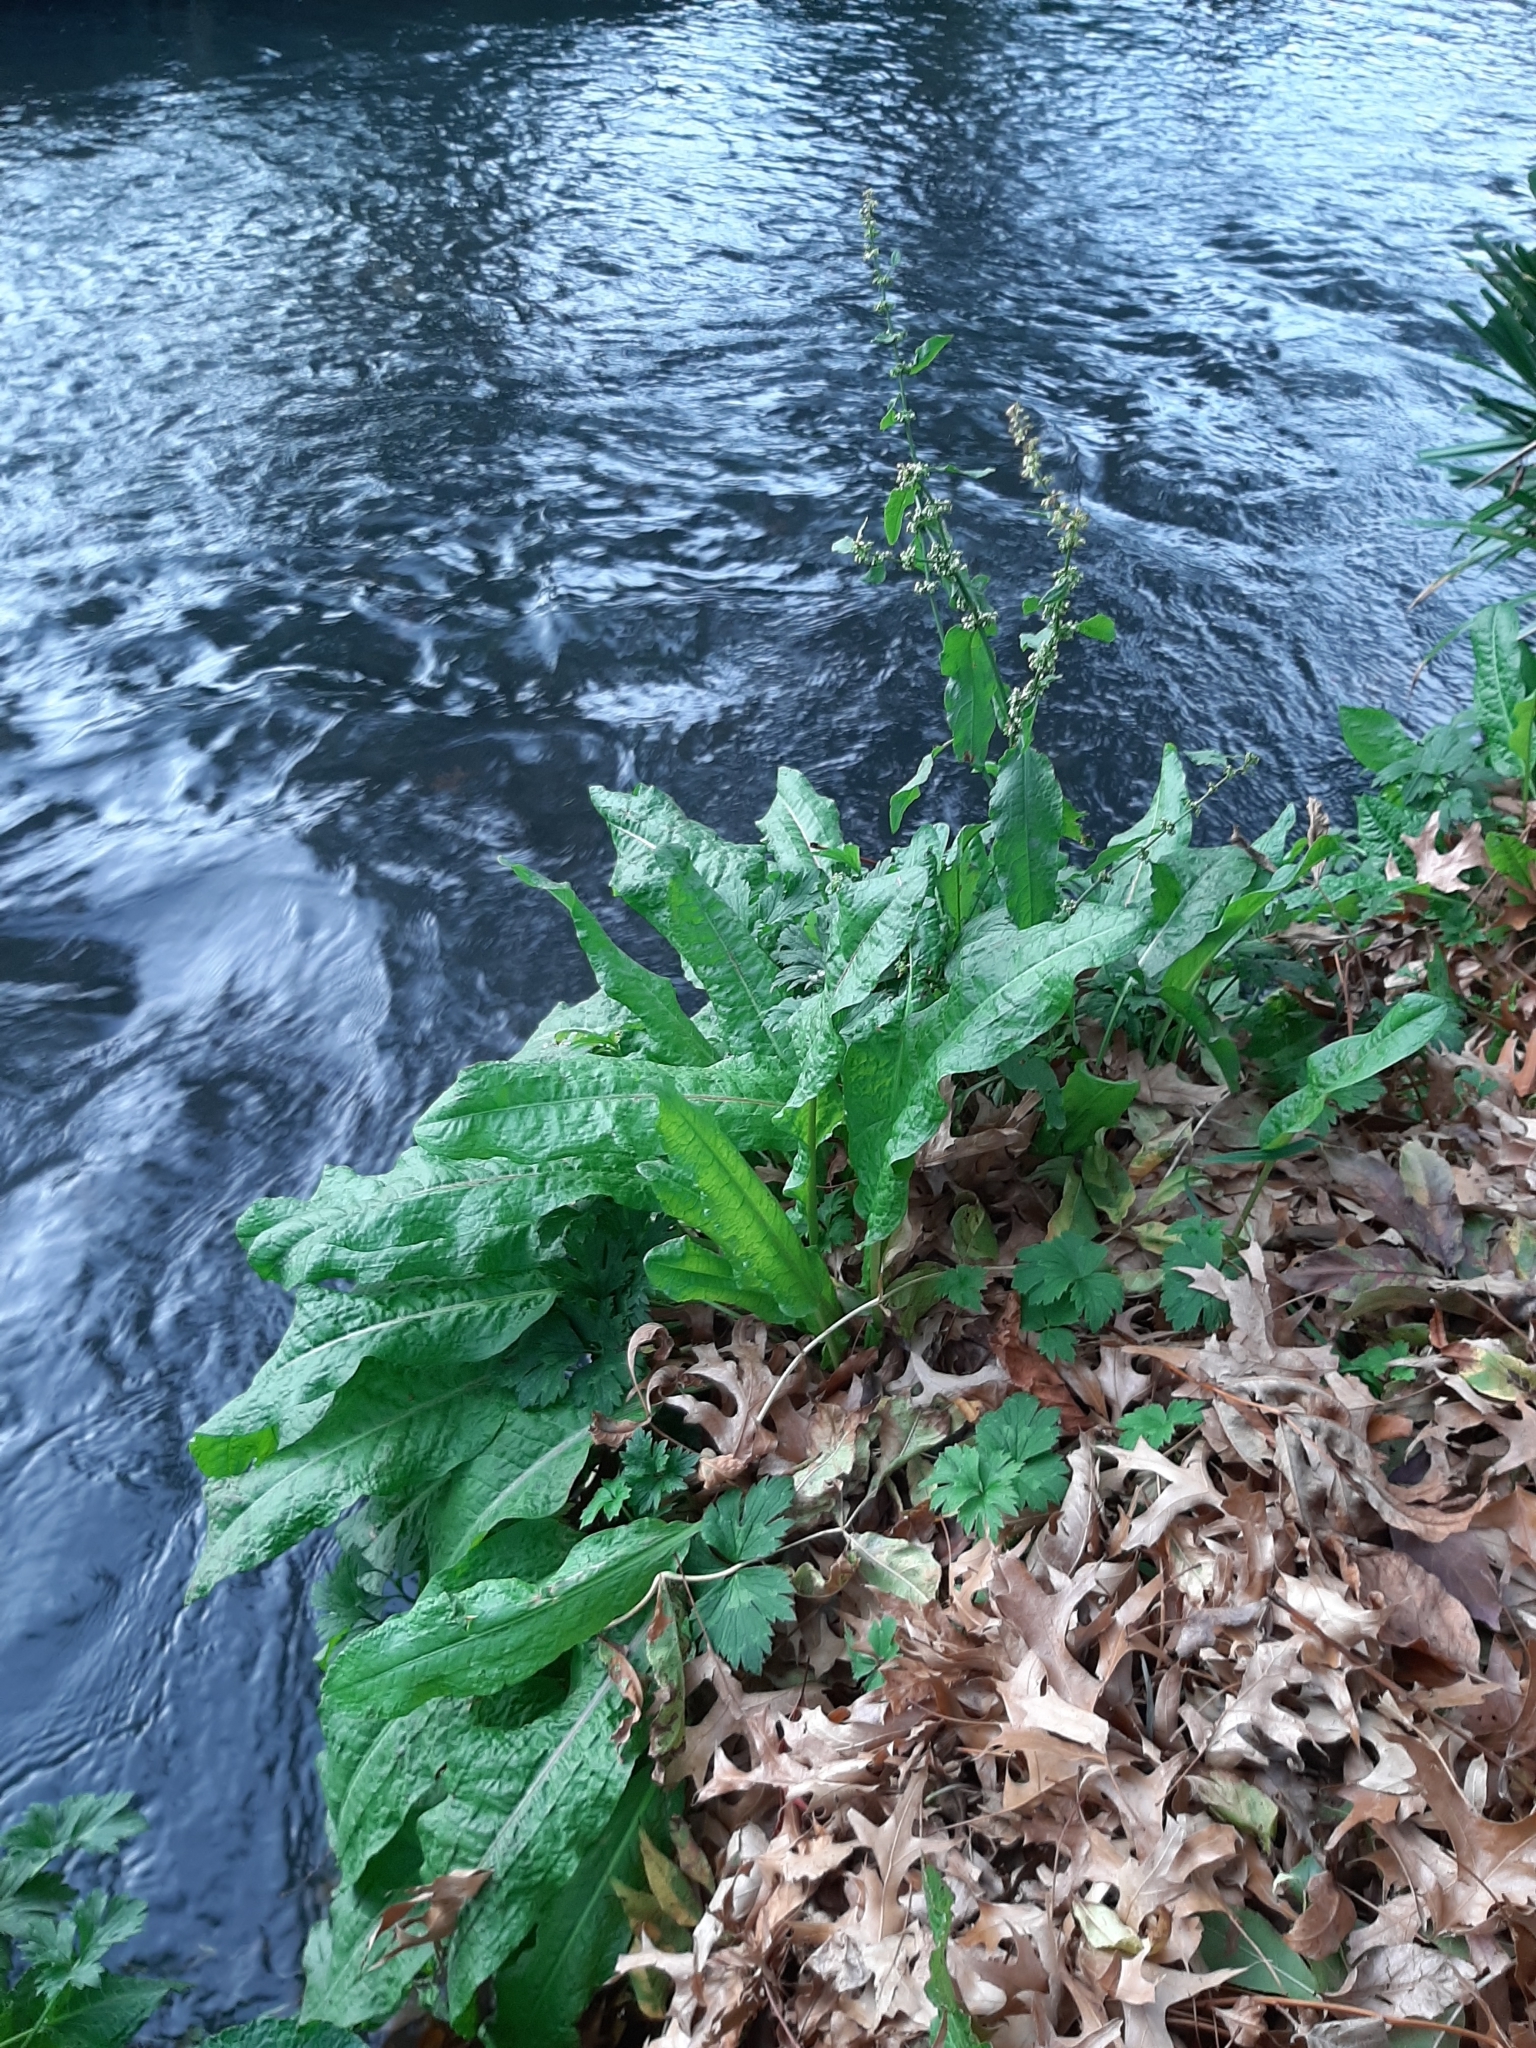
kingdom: Plantae
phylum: Tracheophyta
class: Magnoliopsida
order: Caryophyllales
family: Polygonaceae
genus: Rumex
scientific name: Rumex conglomeratus
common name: Clustered dock
